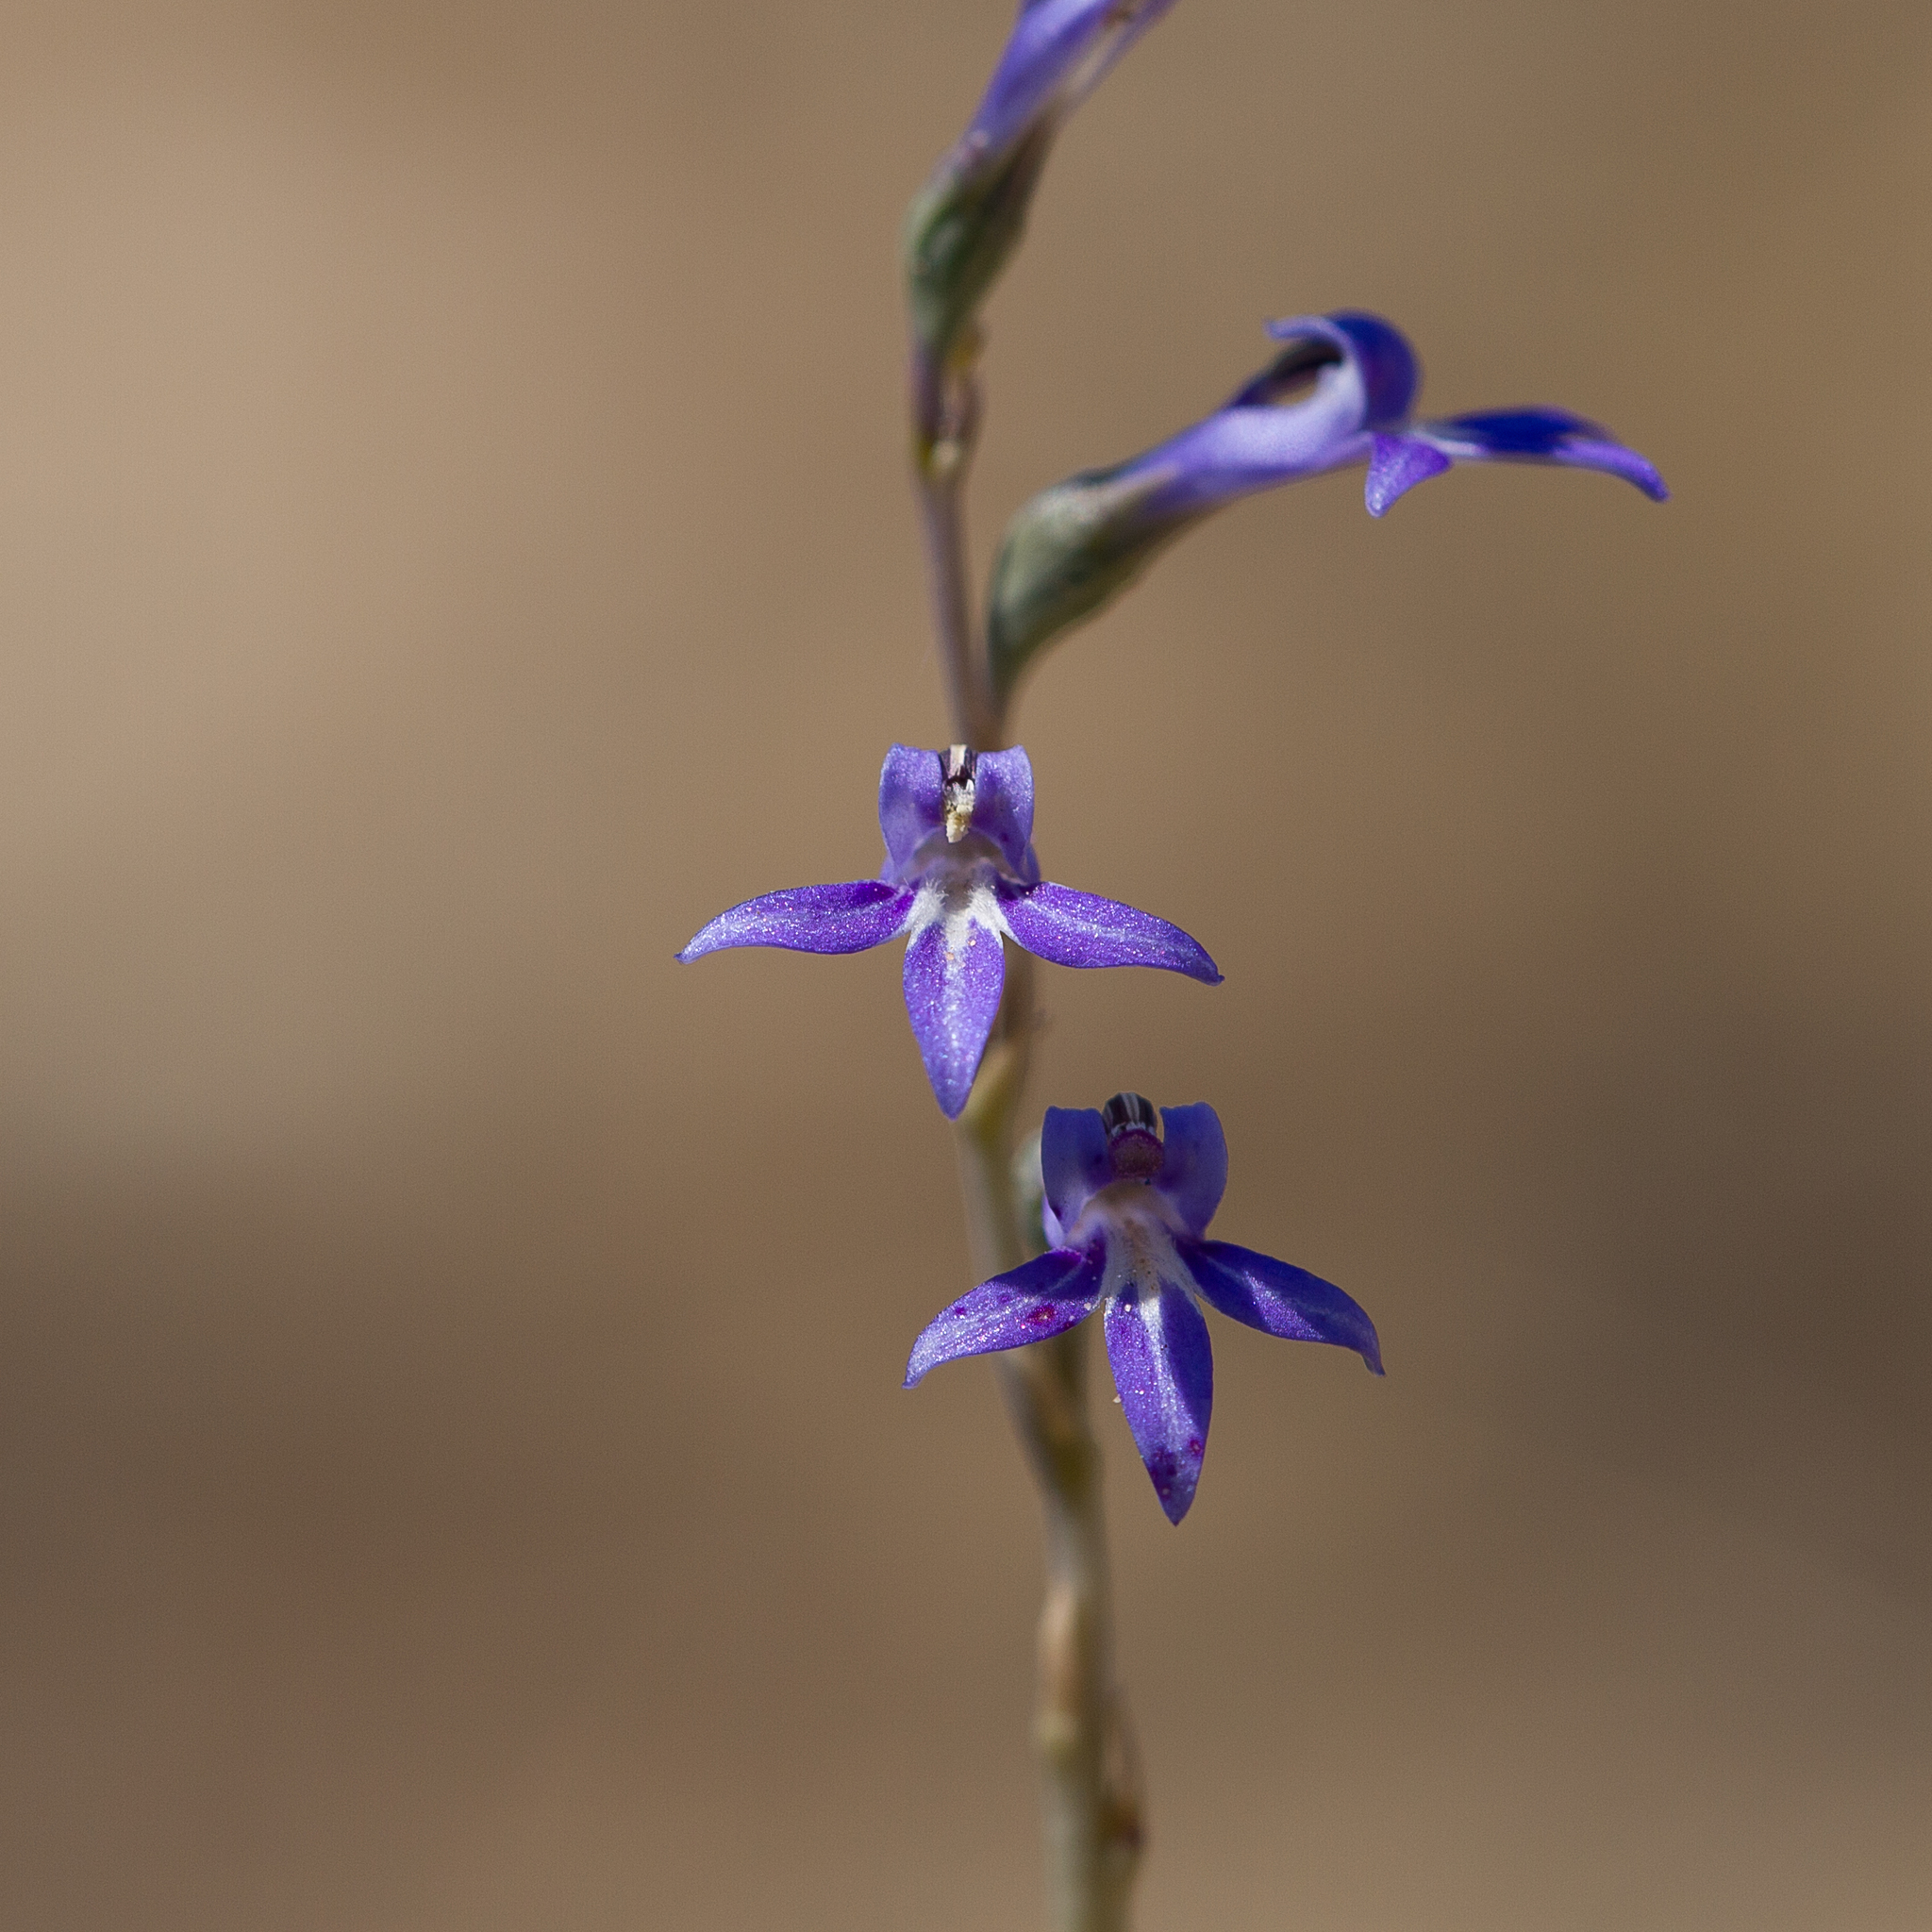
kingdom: Plantae
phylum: Tracheophyta
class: Magnoliopsida
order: Asterales
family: Campanulaceae
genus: Lobelia
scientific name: Lobelia gibbosa
